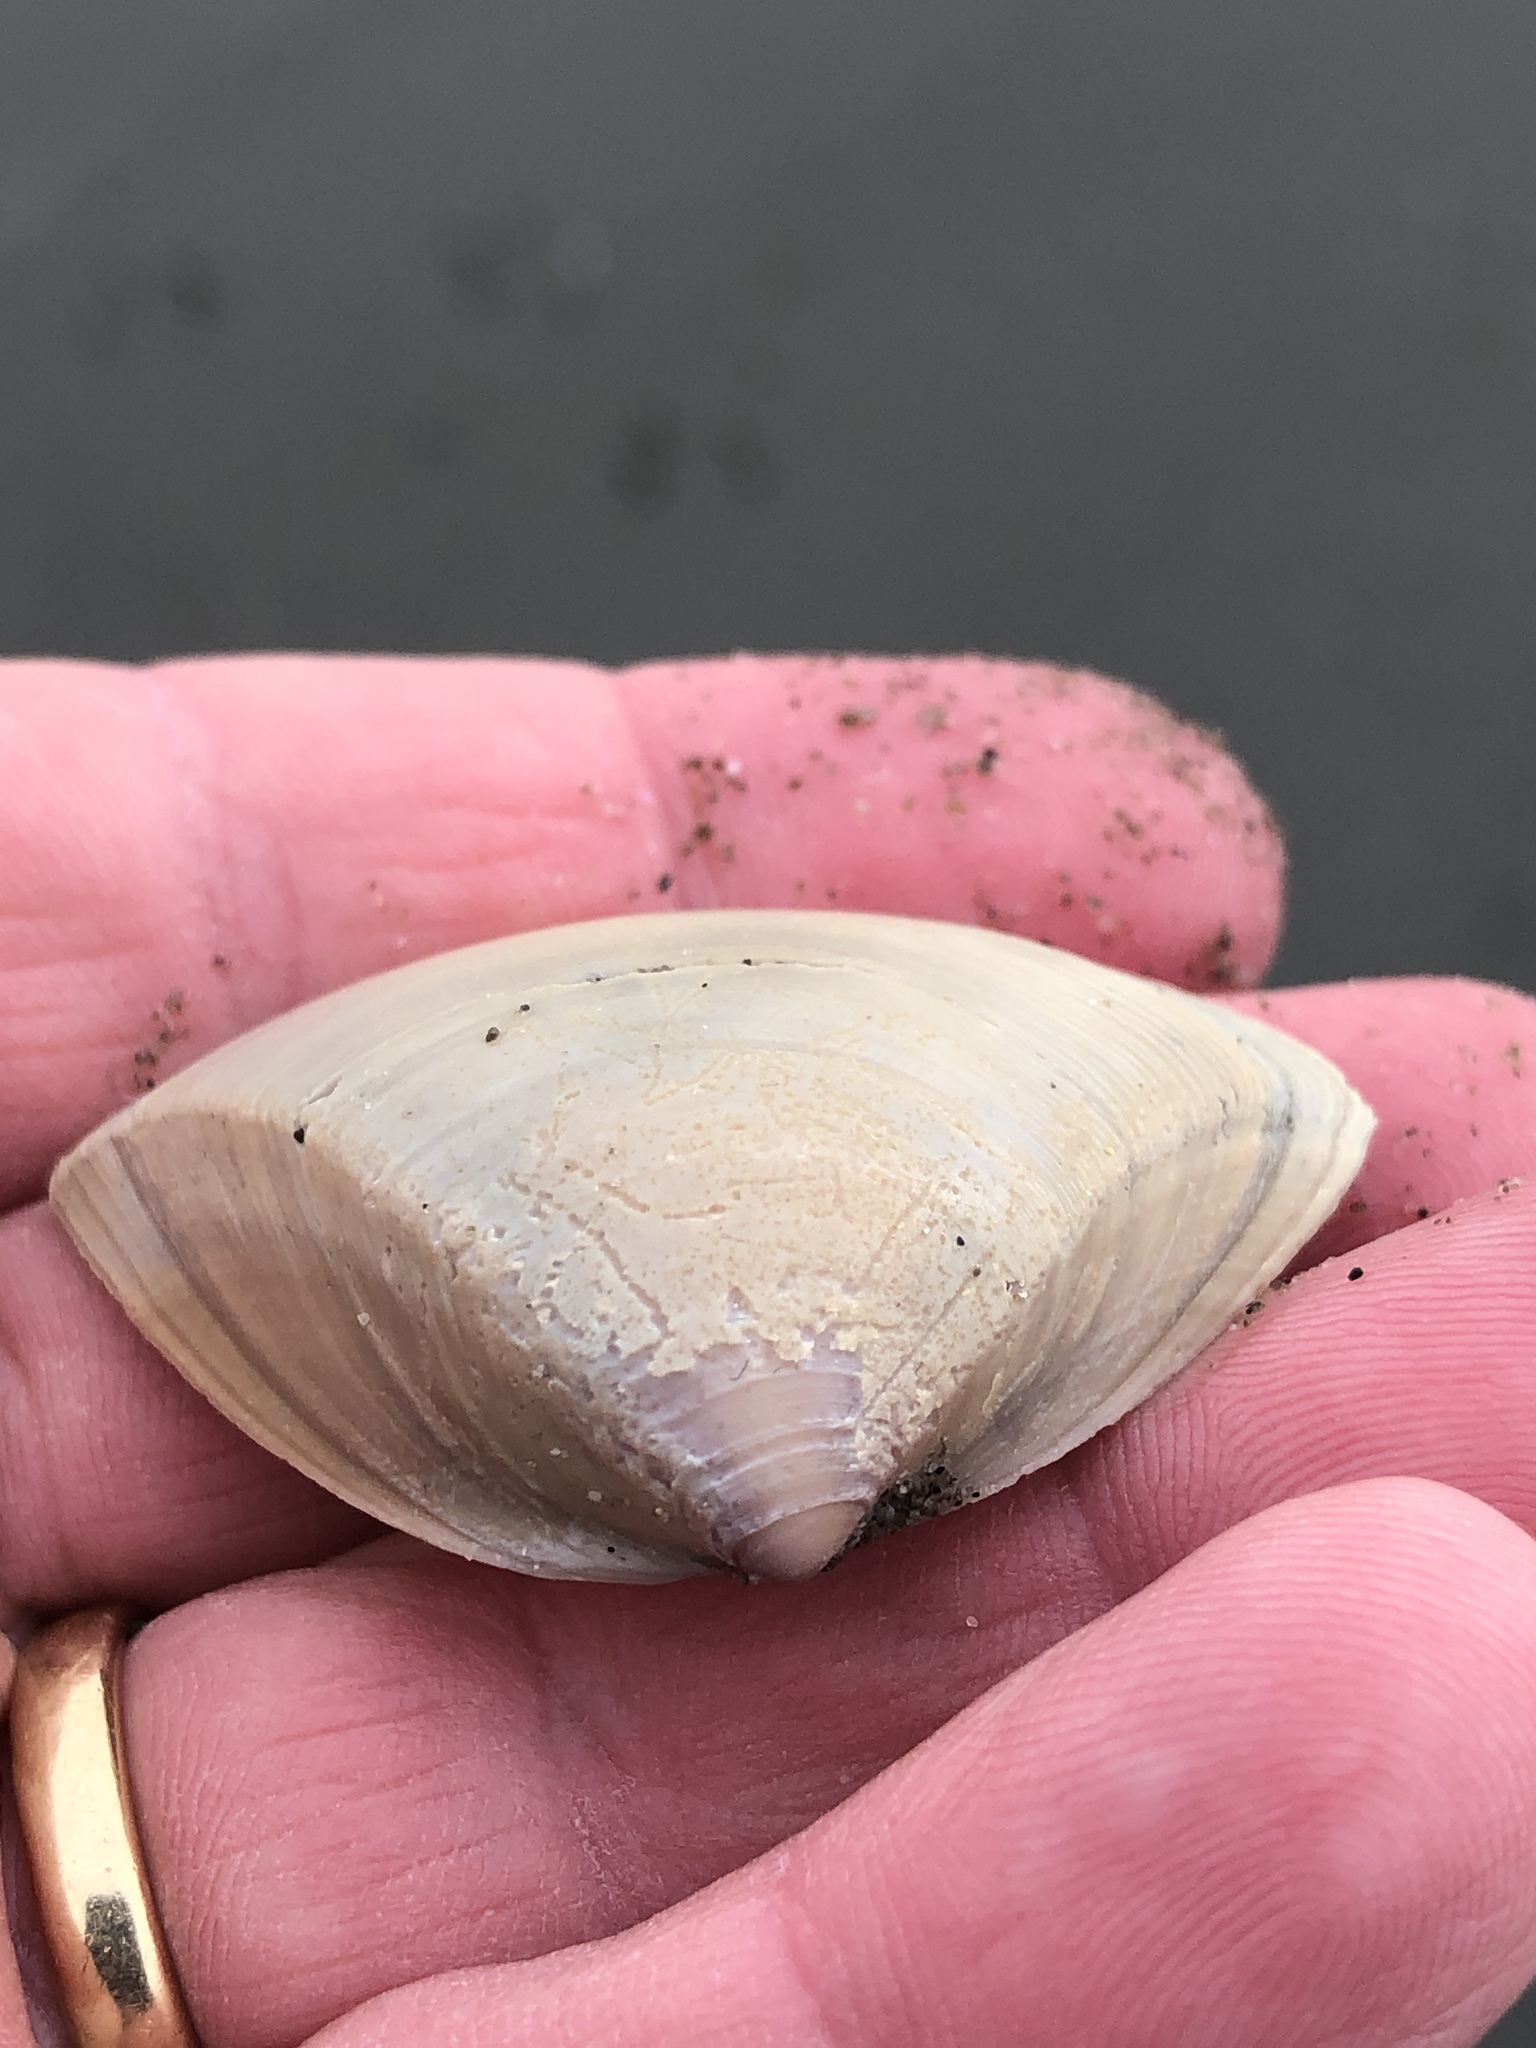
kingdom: Animalia
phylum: Mollusca
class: Bivalvia
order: Venerida
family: Mactridae
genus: Crassula
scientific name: Crassula aequilatera
